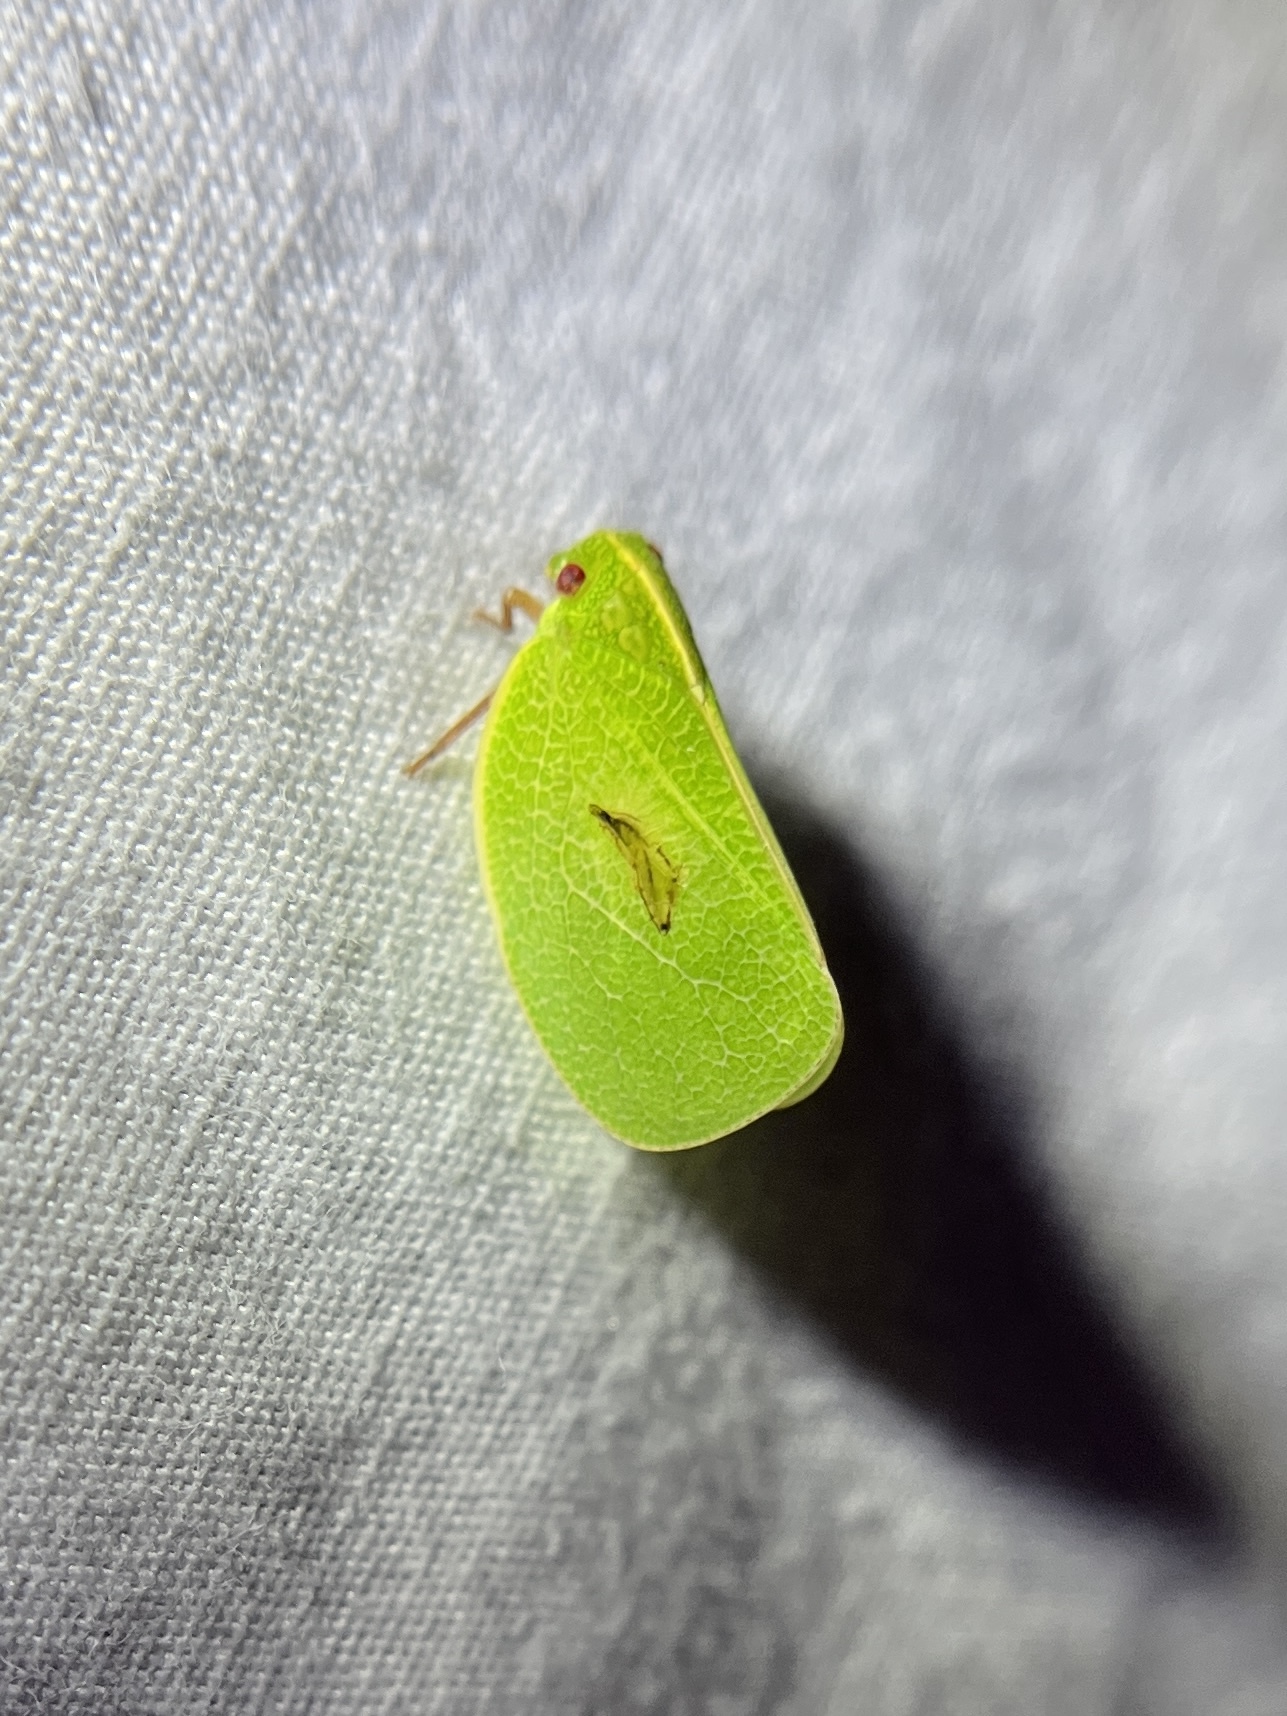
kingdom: Animalia
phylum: Arthropoda
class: Insecta
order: Hemiptera
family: Acanaloniidae
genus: Acanalonia
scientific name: Acanalonia servillei
